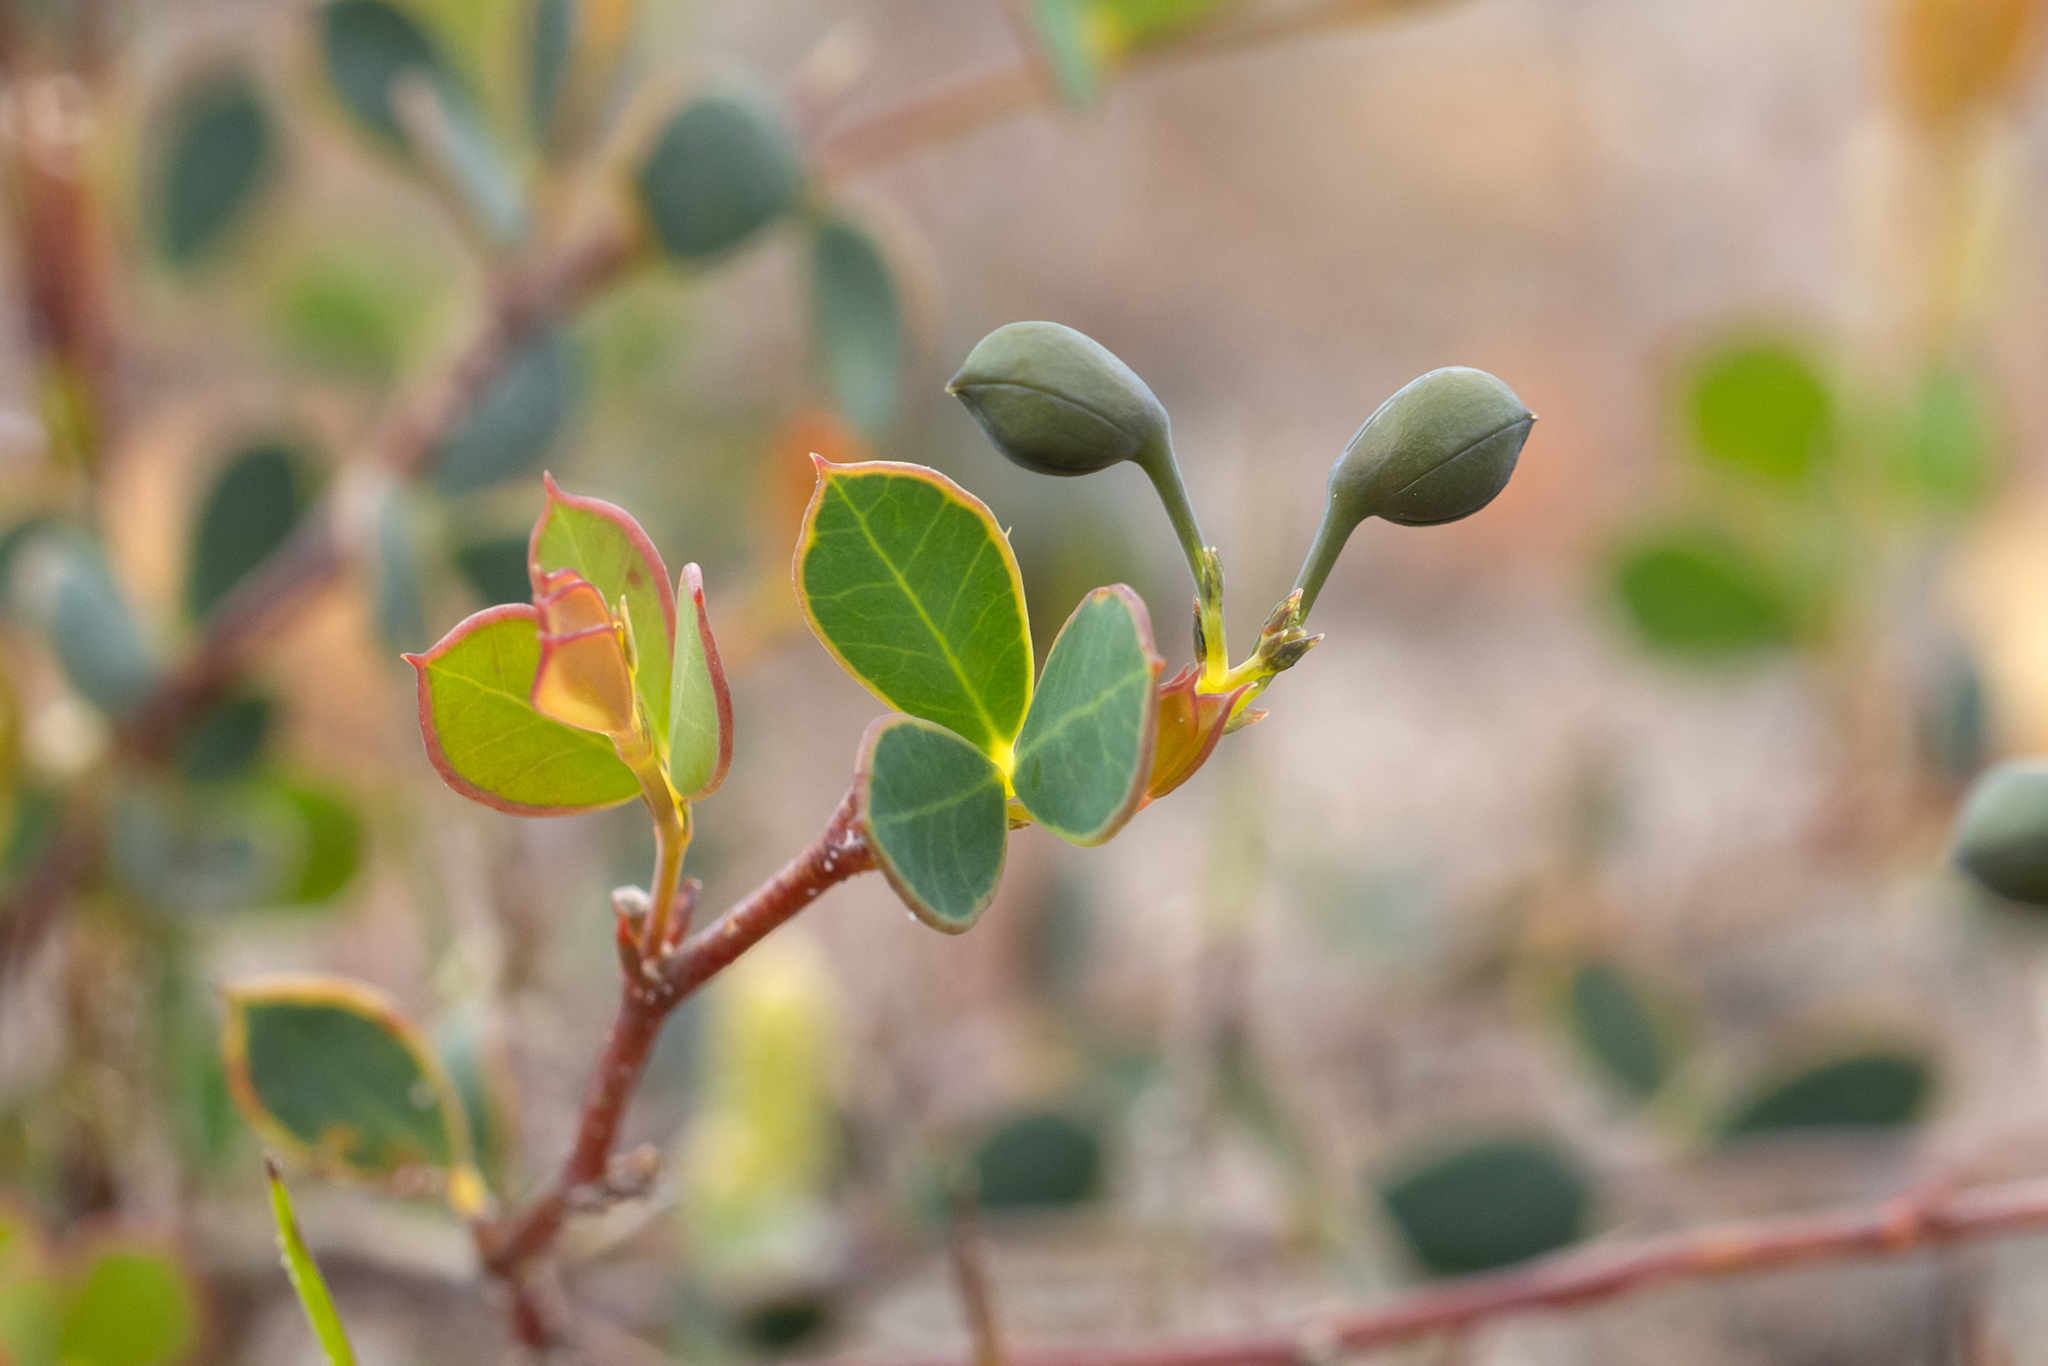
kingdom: Plantae
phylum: Tracheophyta
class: Magnoliopsida
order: Fabales
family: Fabaceae
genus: Gompholobium
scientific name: Gompholobium marginatum
